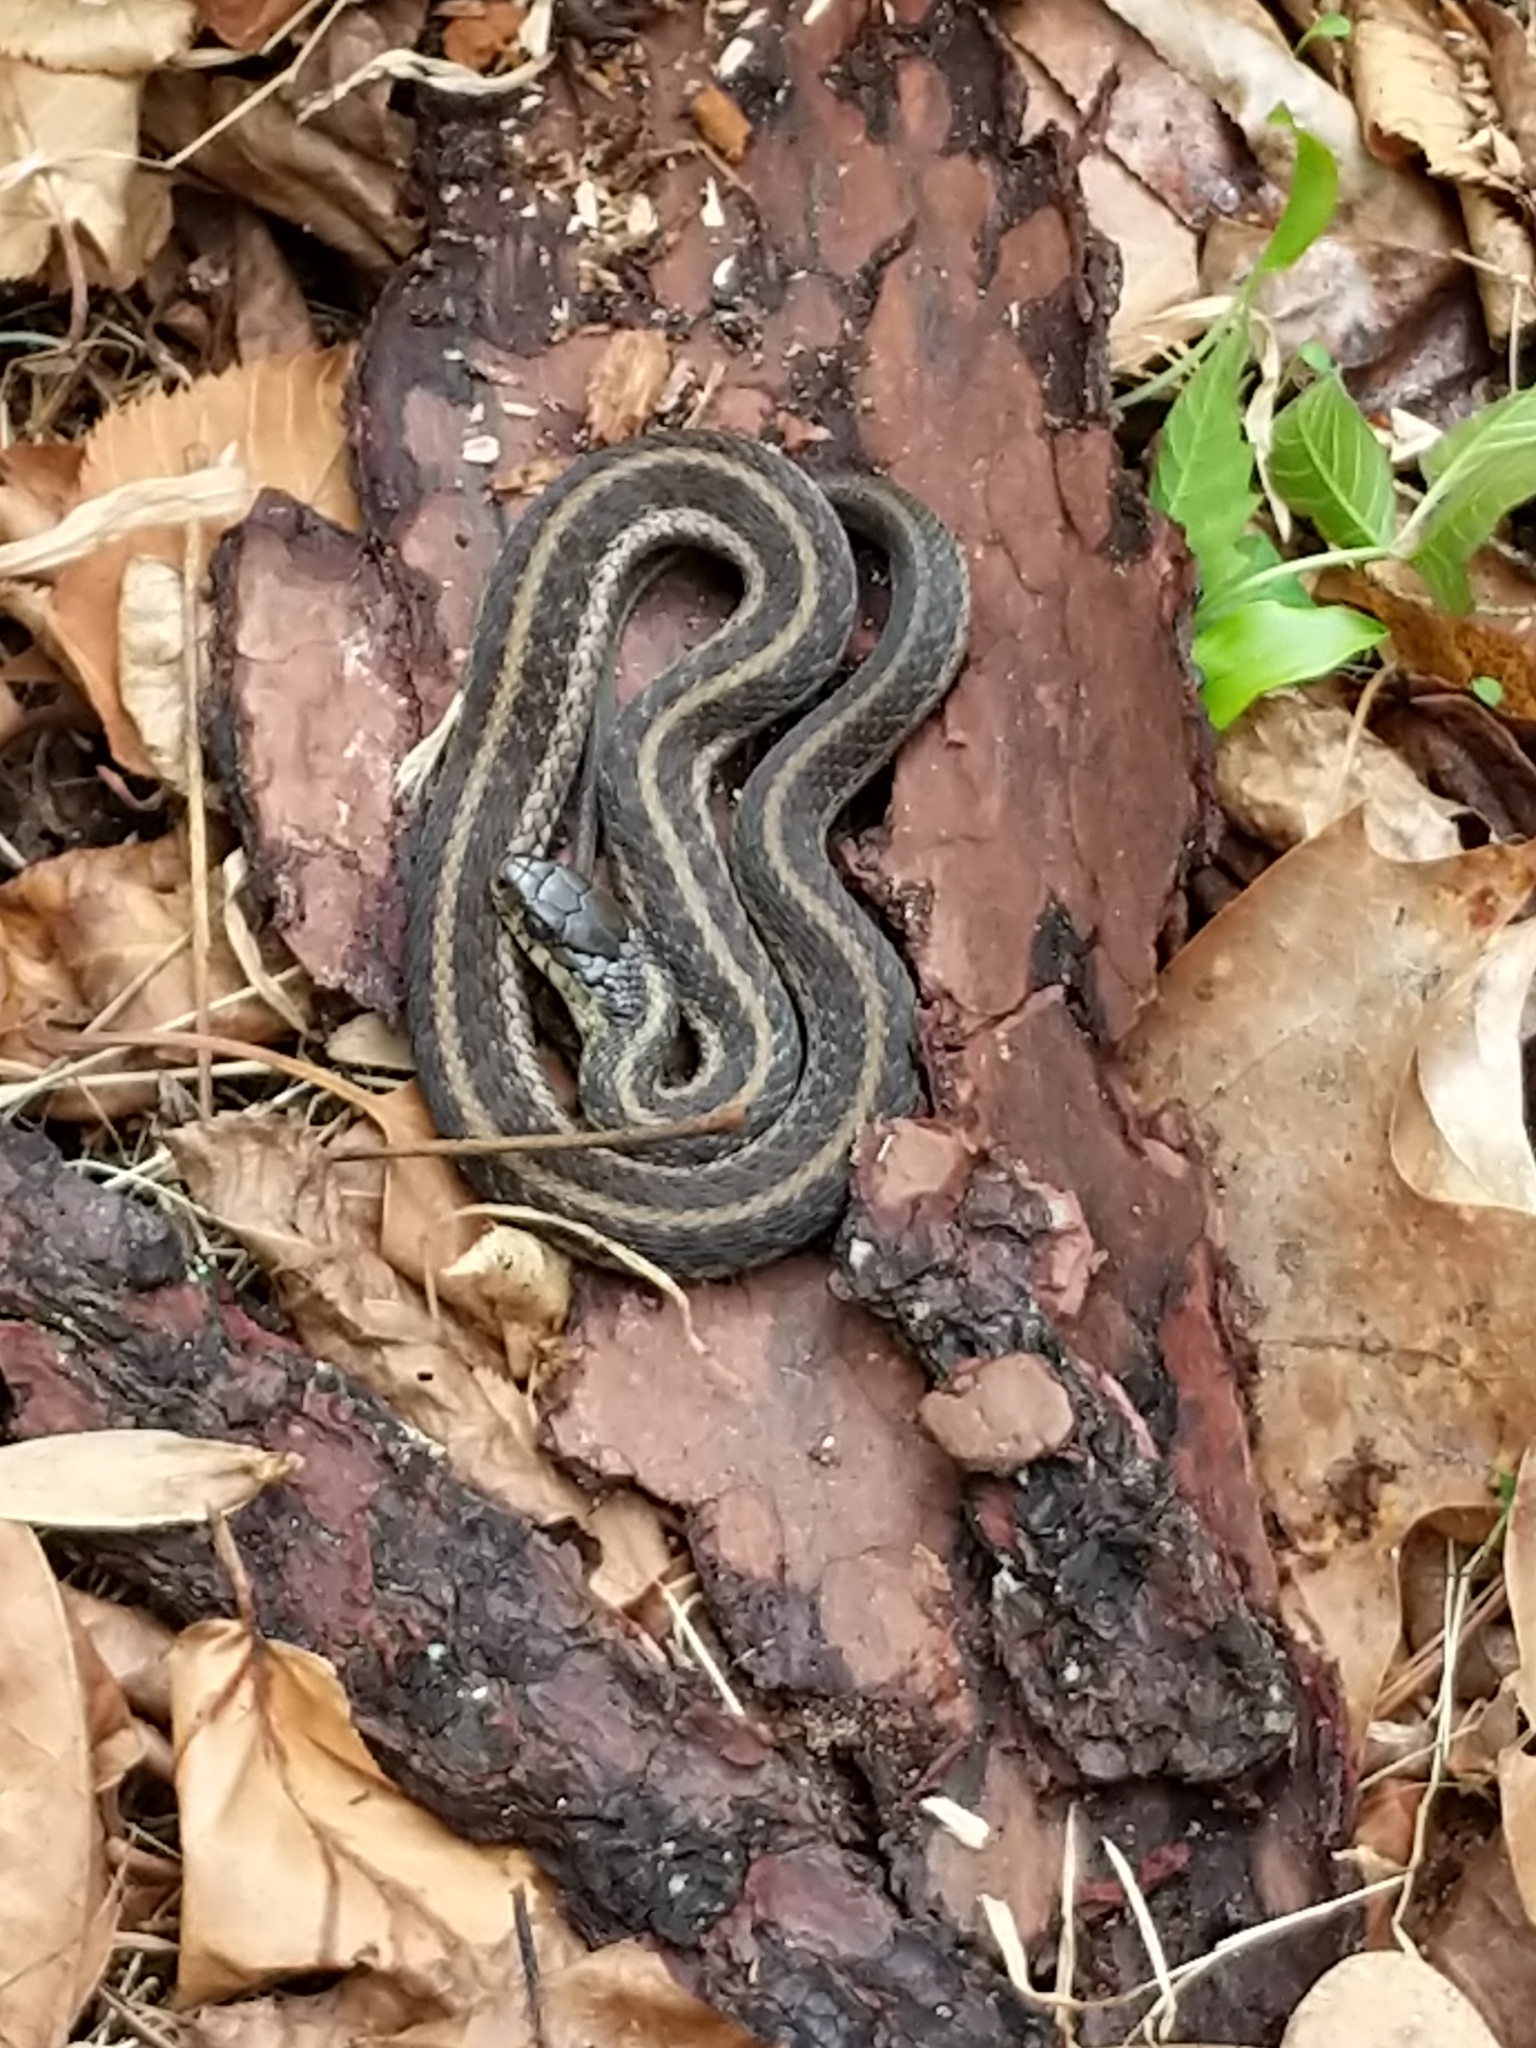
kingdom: Animalia
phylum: Chordata
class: Squamata
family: Colubridae
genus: Thamnophis
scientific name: Thamnophis sirtalis
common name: Common garter snake
